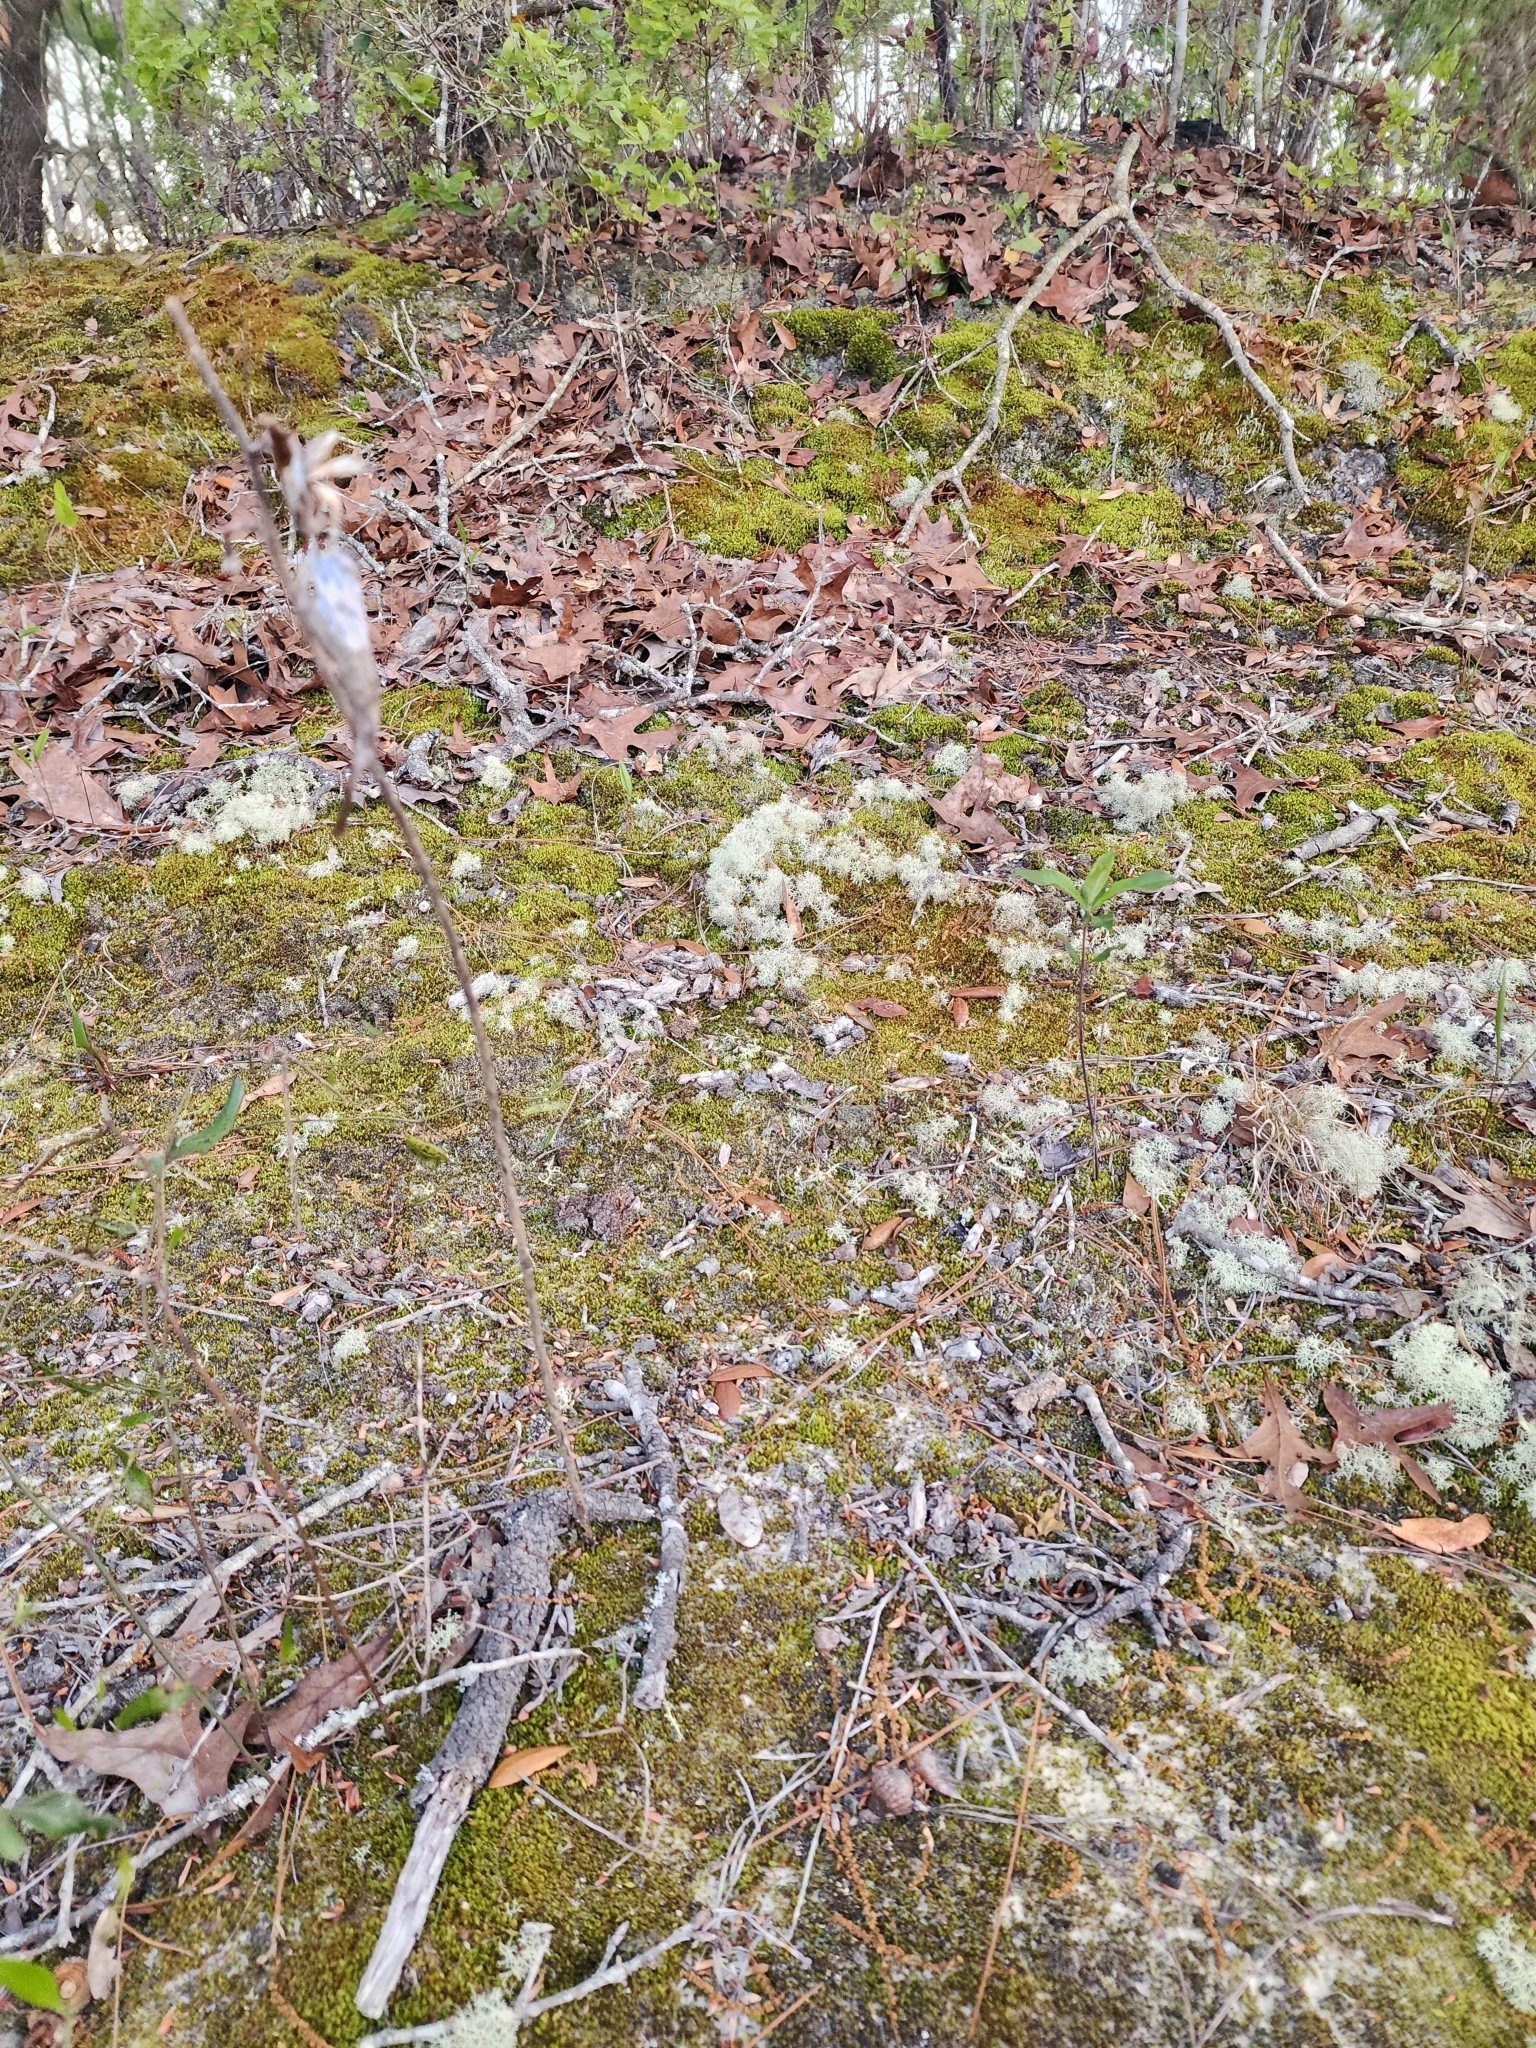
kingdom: Plantae
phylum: Tracheophyta
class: Magnoliopsida
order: Gentianales
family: Apocynaceae
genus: Asclepias
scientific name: Asclepias tomentosa
